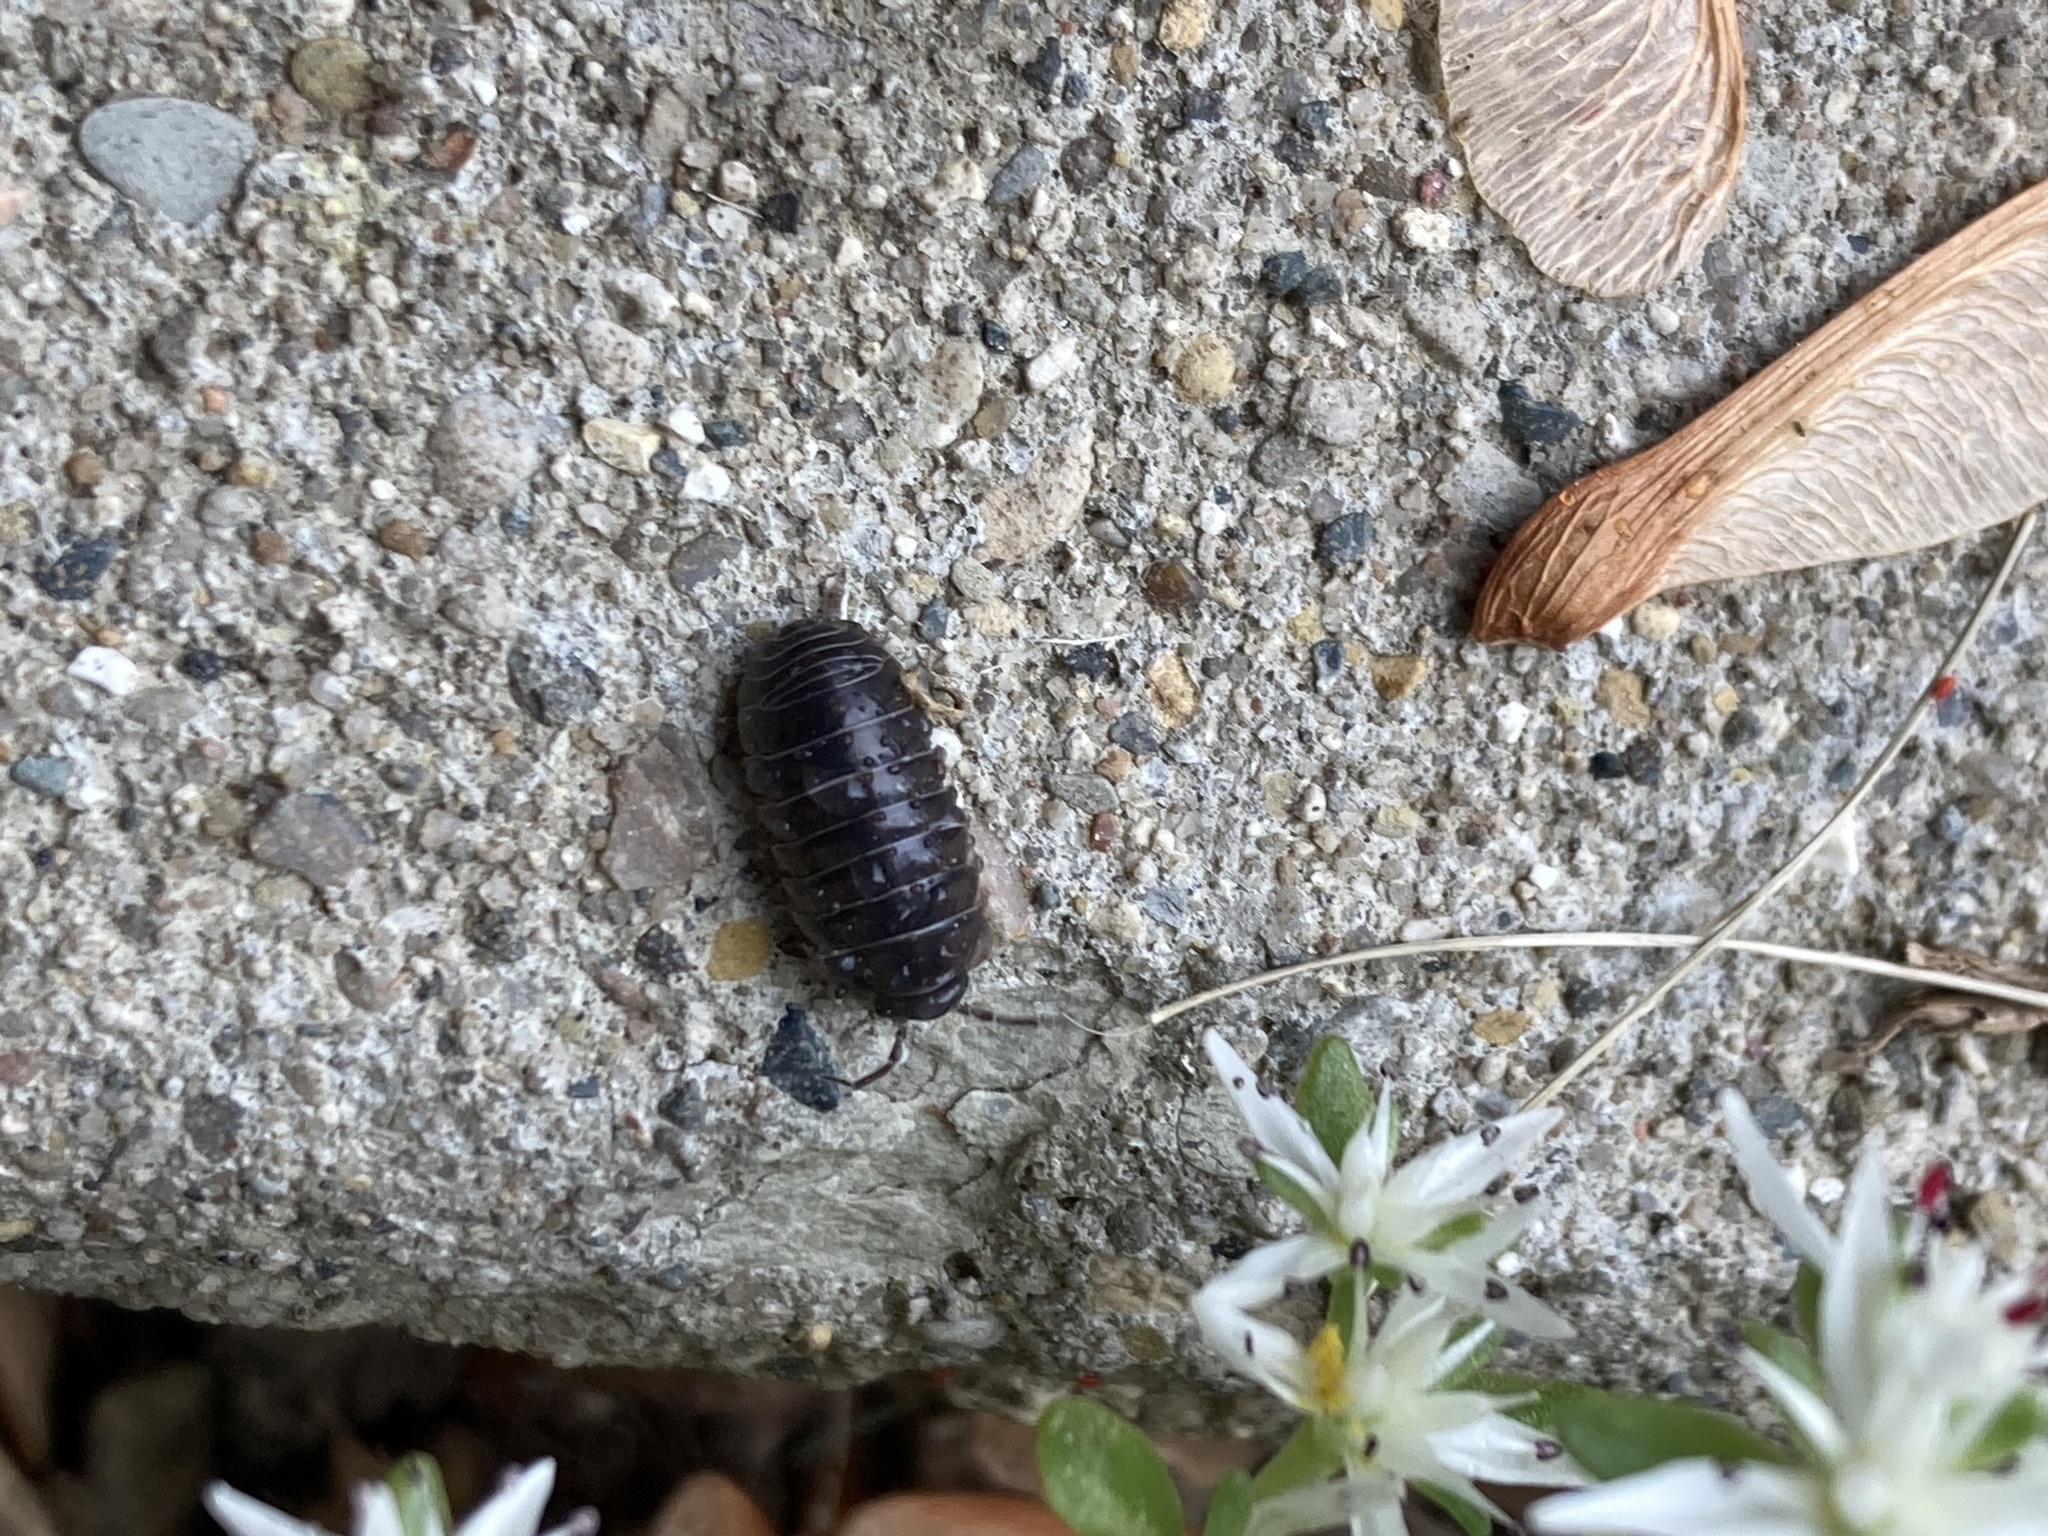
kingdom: Animalia
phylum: Arthropoda
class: Malacostraca
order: Isopoda
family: Armadillidiidae
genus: Armadillidium
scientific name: Armadillidium vulgare
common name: Common pill woodlouse
